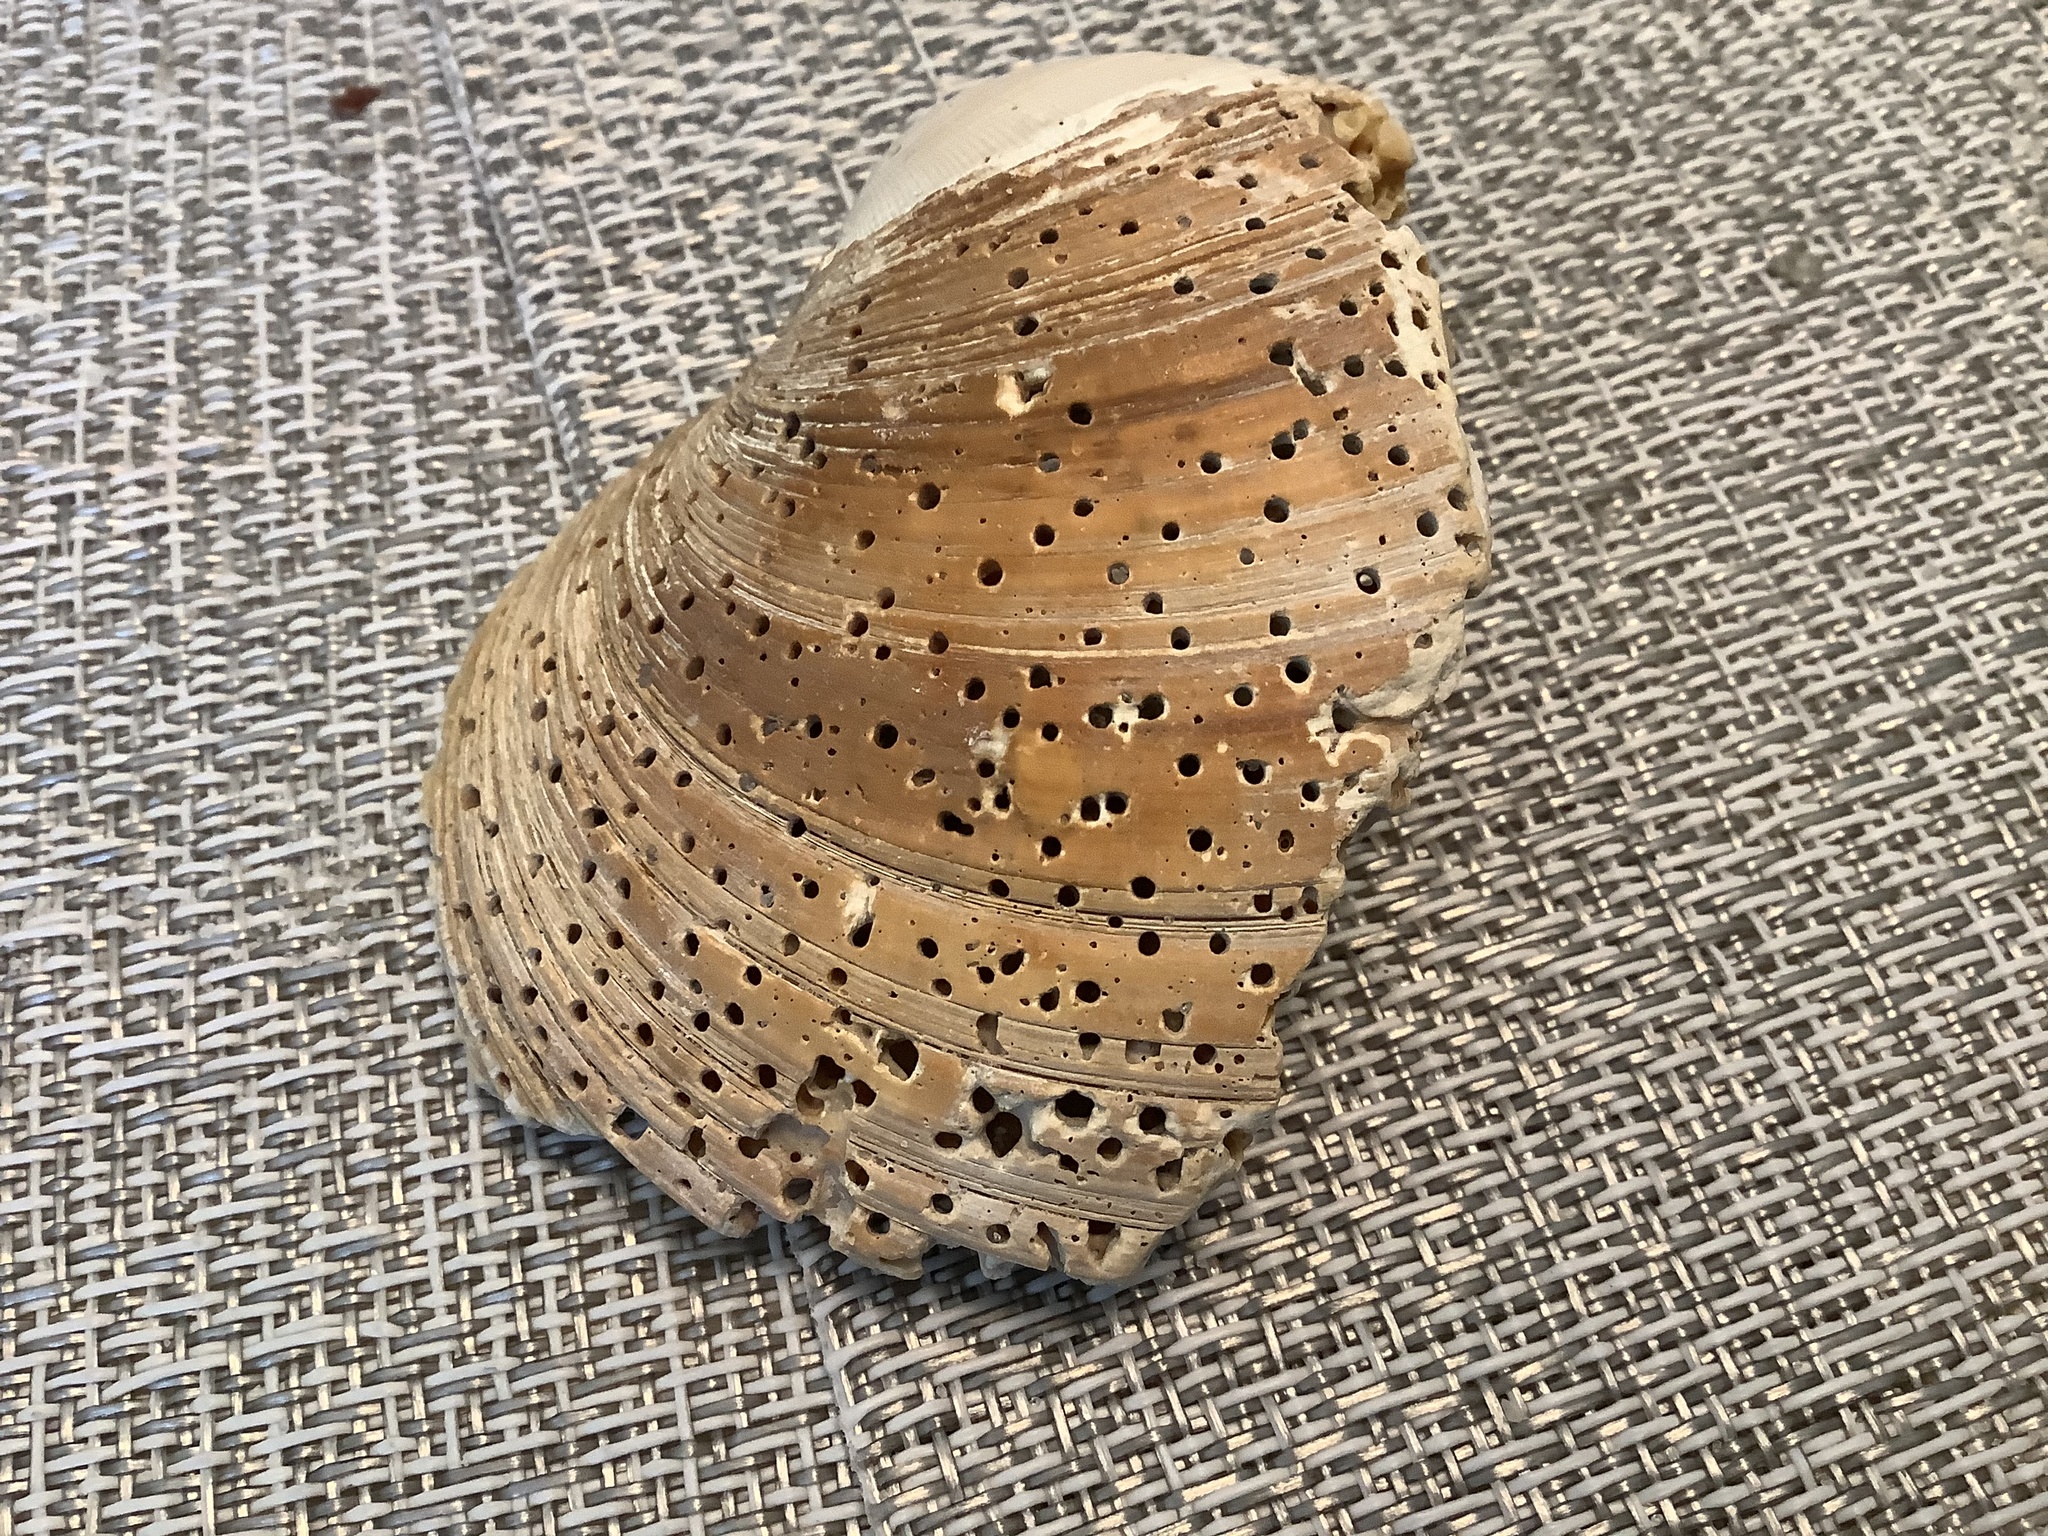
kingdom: Animalia
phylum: Mollusca
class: Bivalvia
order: Venerida
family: Veneridae
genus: Mercenaria
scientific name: Mercenaria campechiensis
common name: Südliche quahog-muschel
